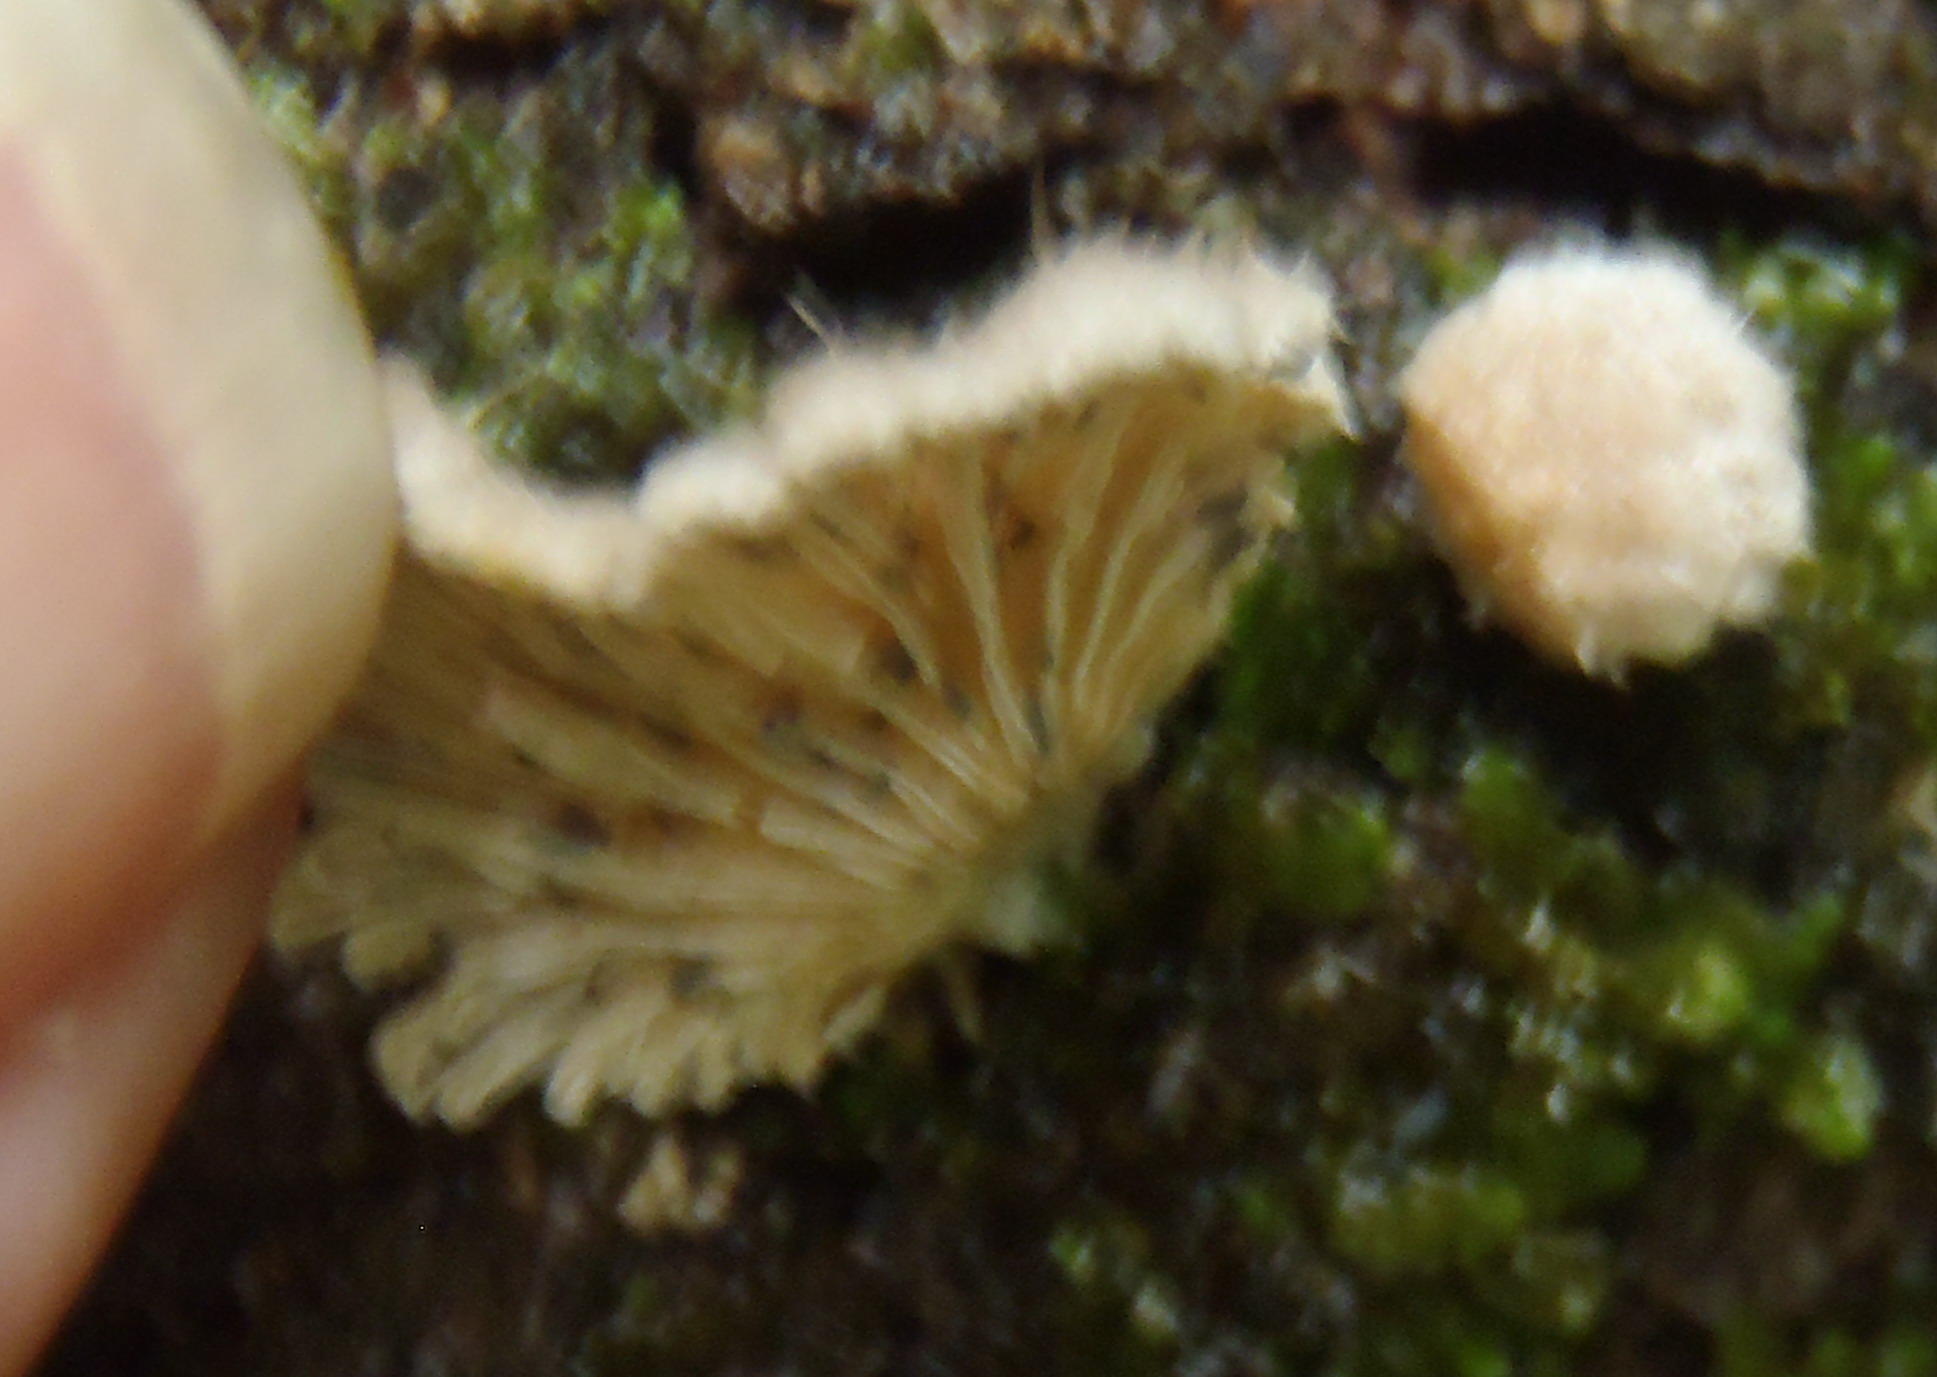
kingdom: Fungi
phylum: Basidiomycota
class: Agaricomycetes
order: Agaricales
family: Schizophyllaceae
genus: Schizophyllum
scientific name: Schizophyllum commune
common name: Common porecrust
